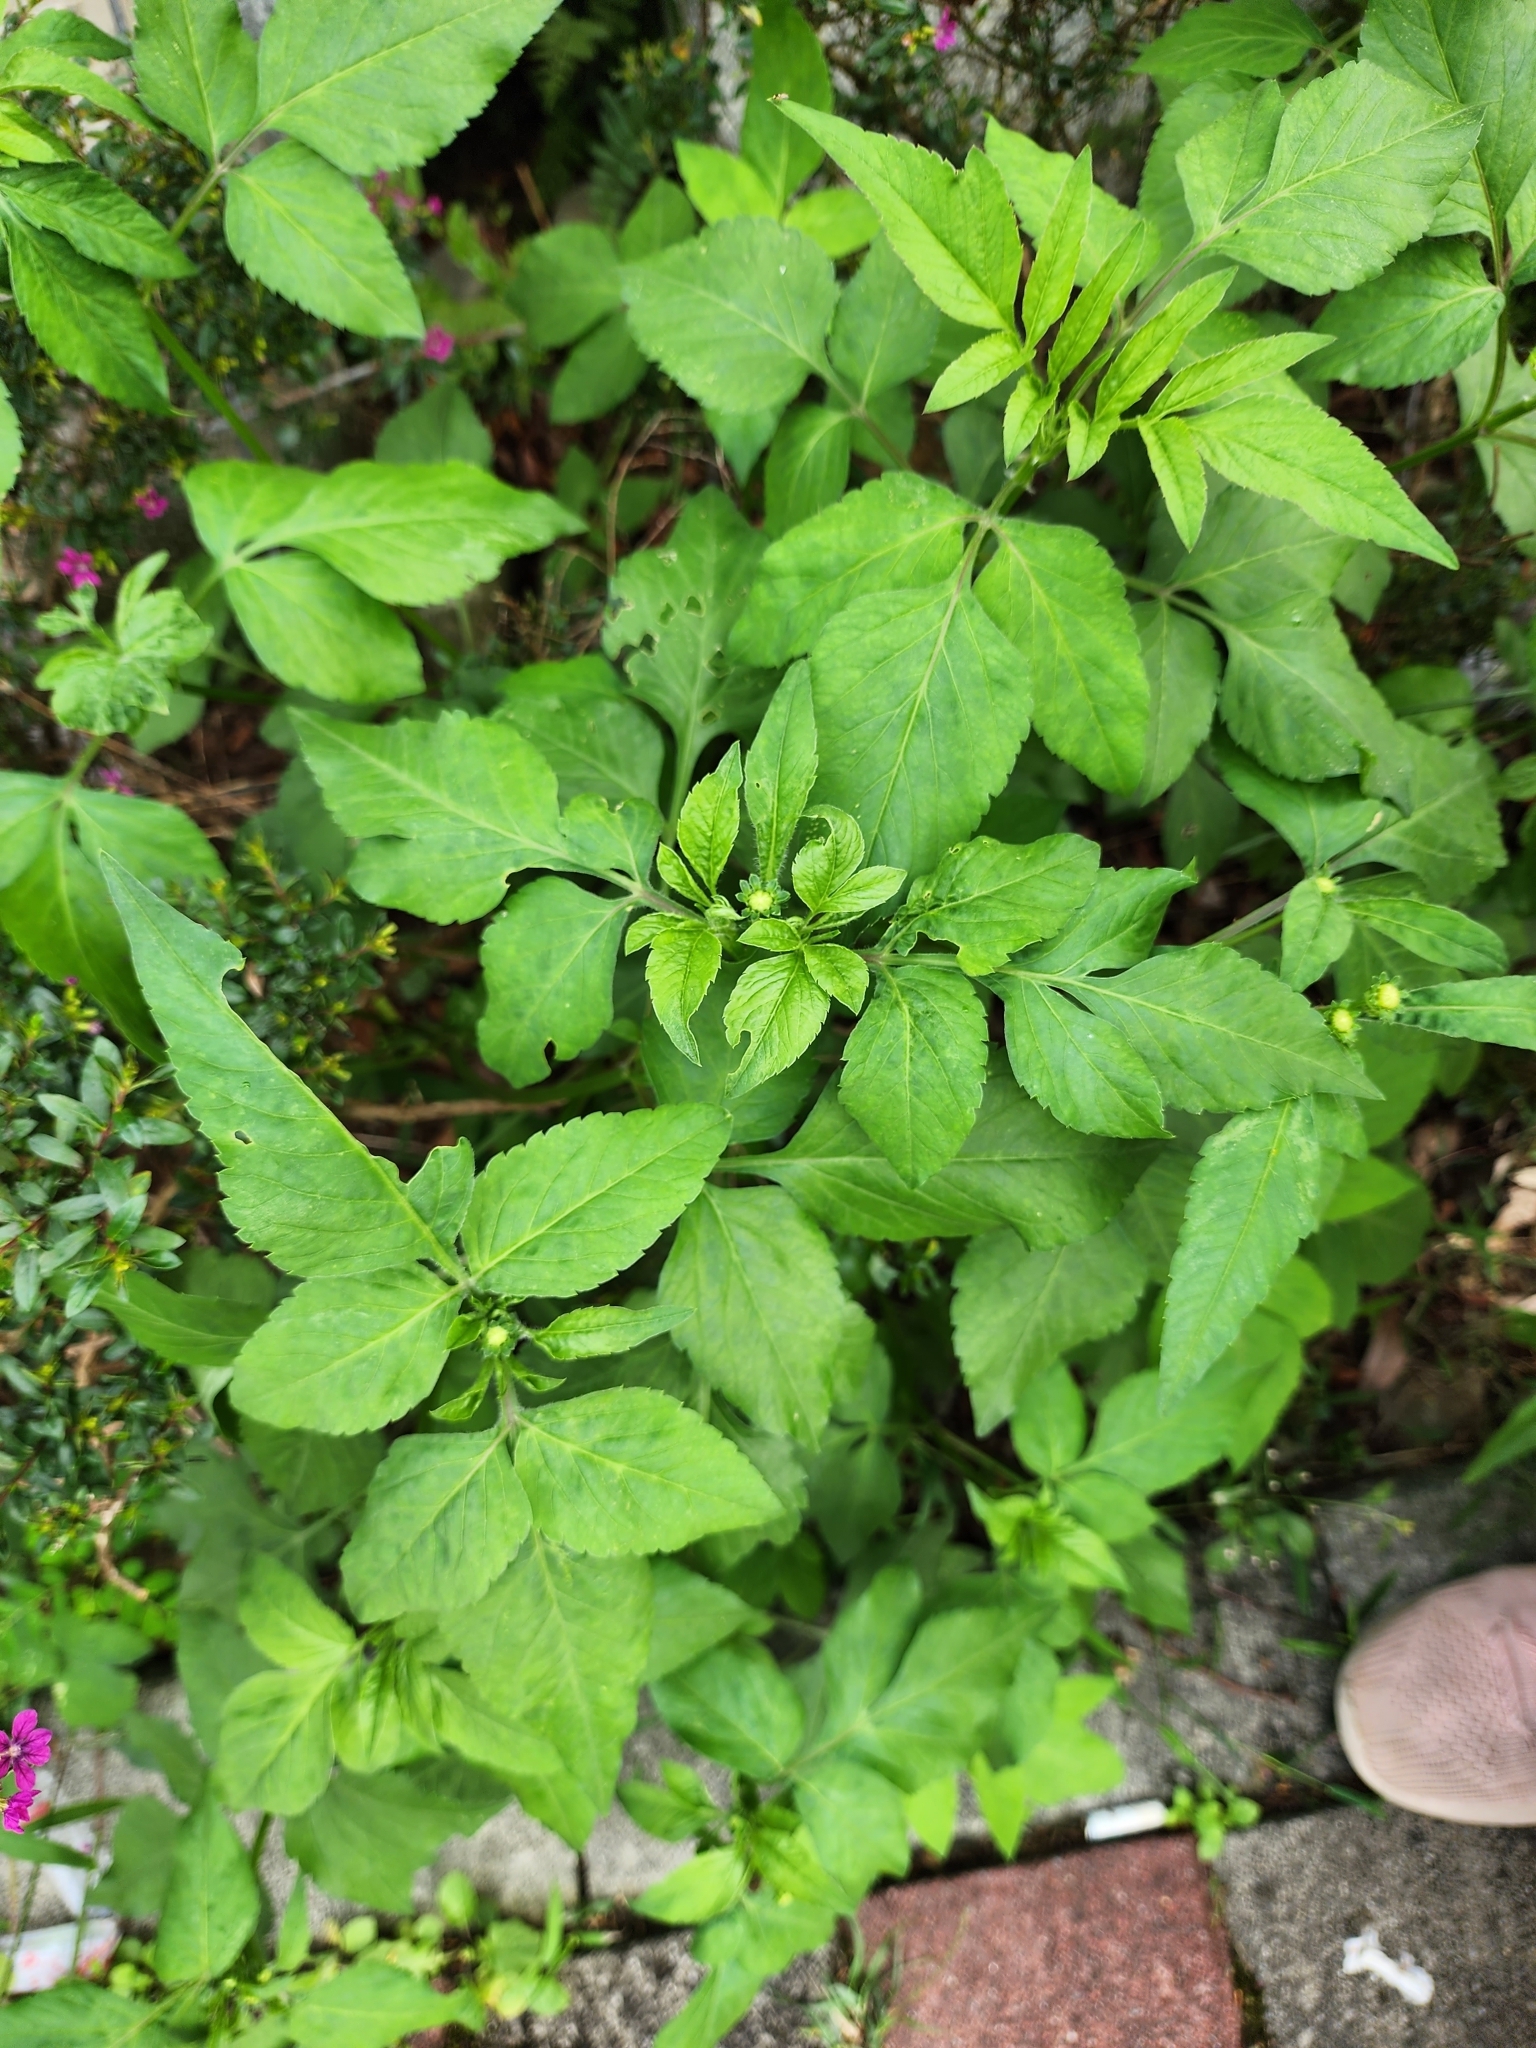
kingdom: Plantae
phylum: Tracheophyta
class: Magnoliopsida
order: Asterales
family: Asteraceae
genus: Bidens
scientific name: Bidens alba
